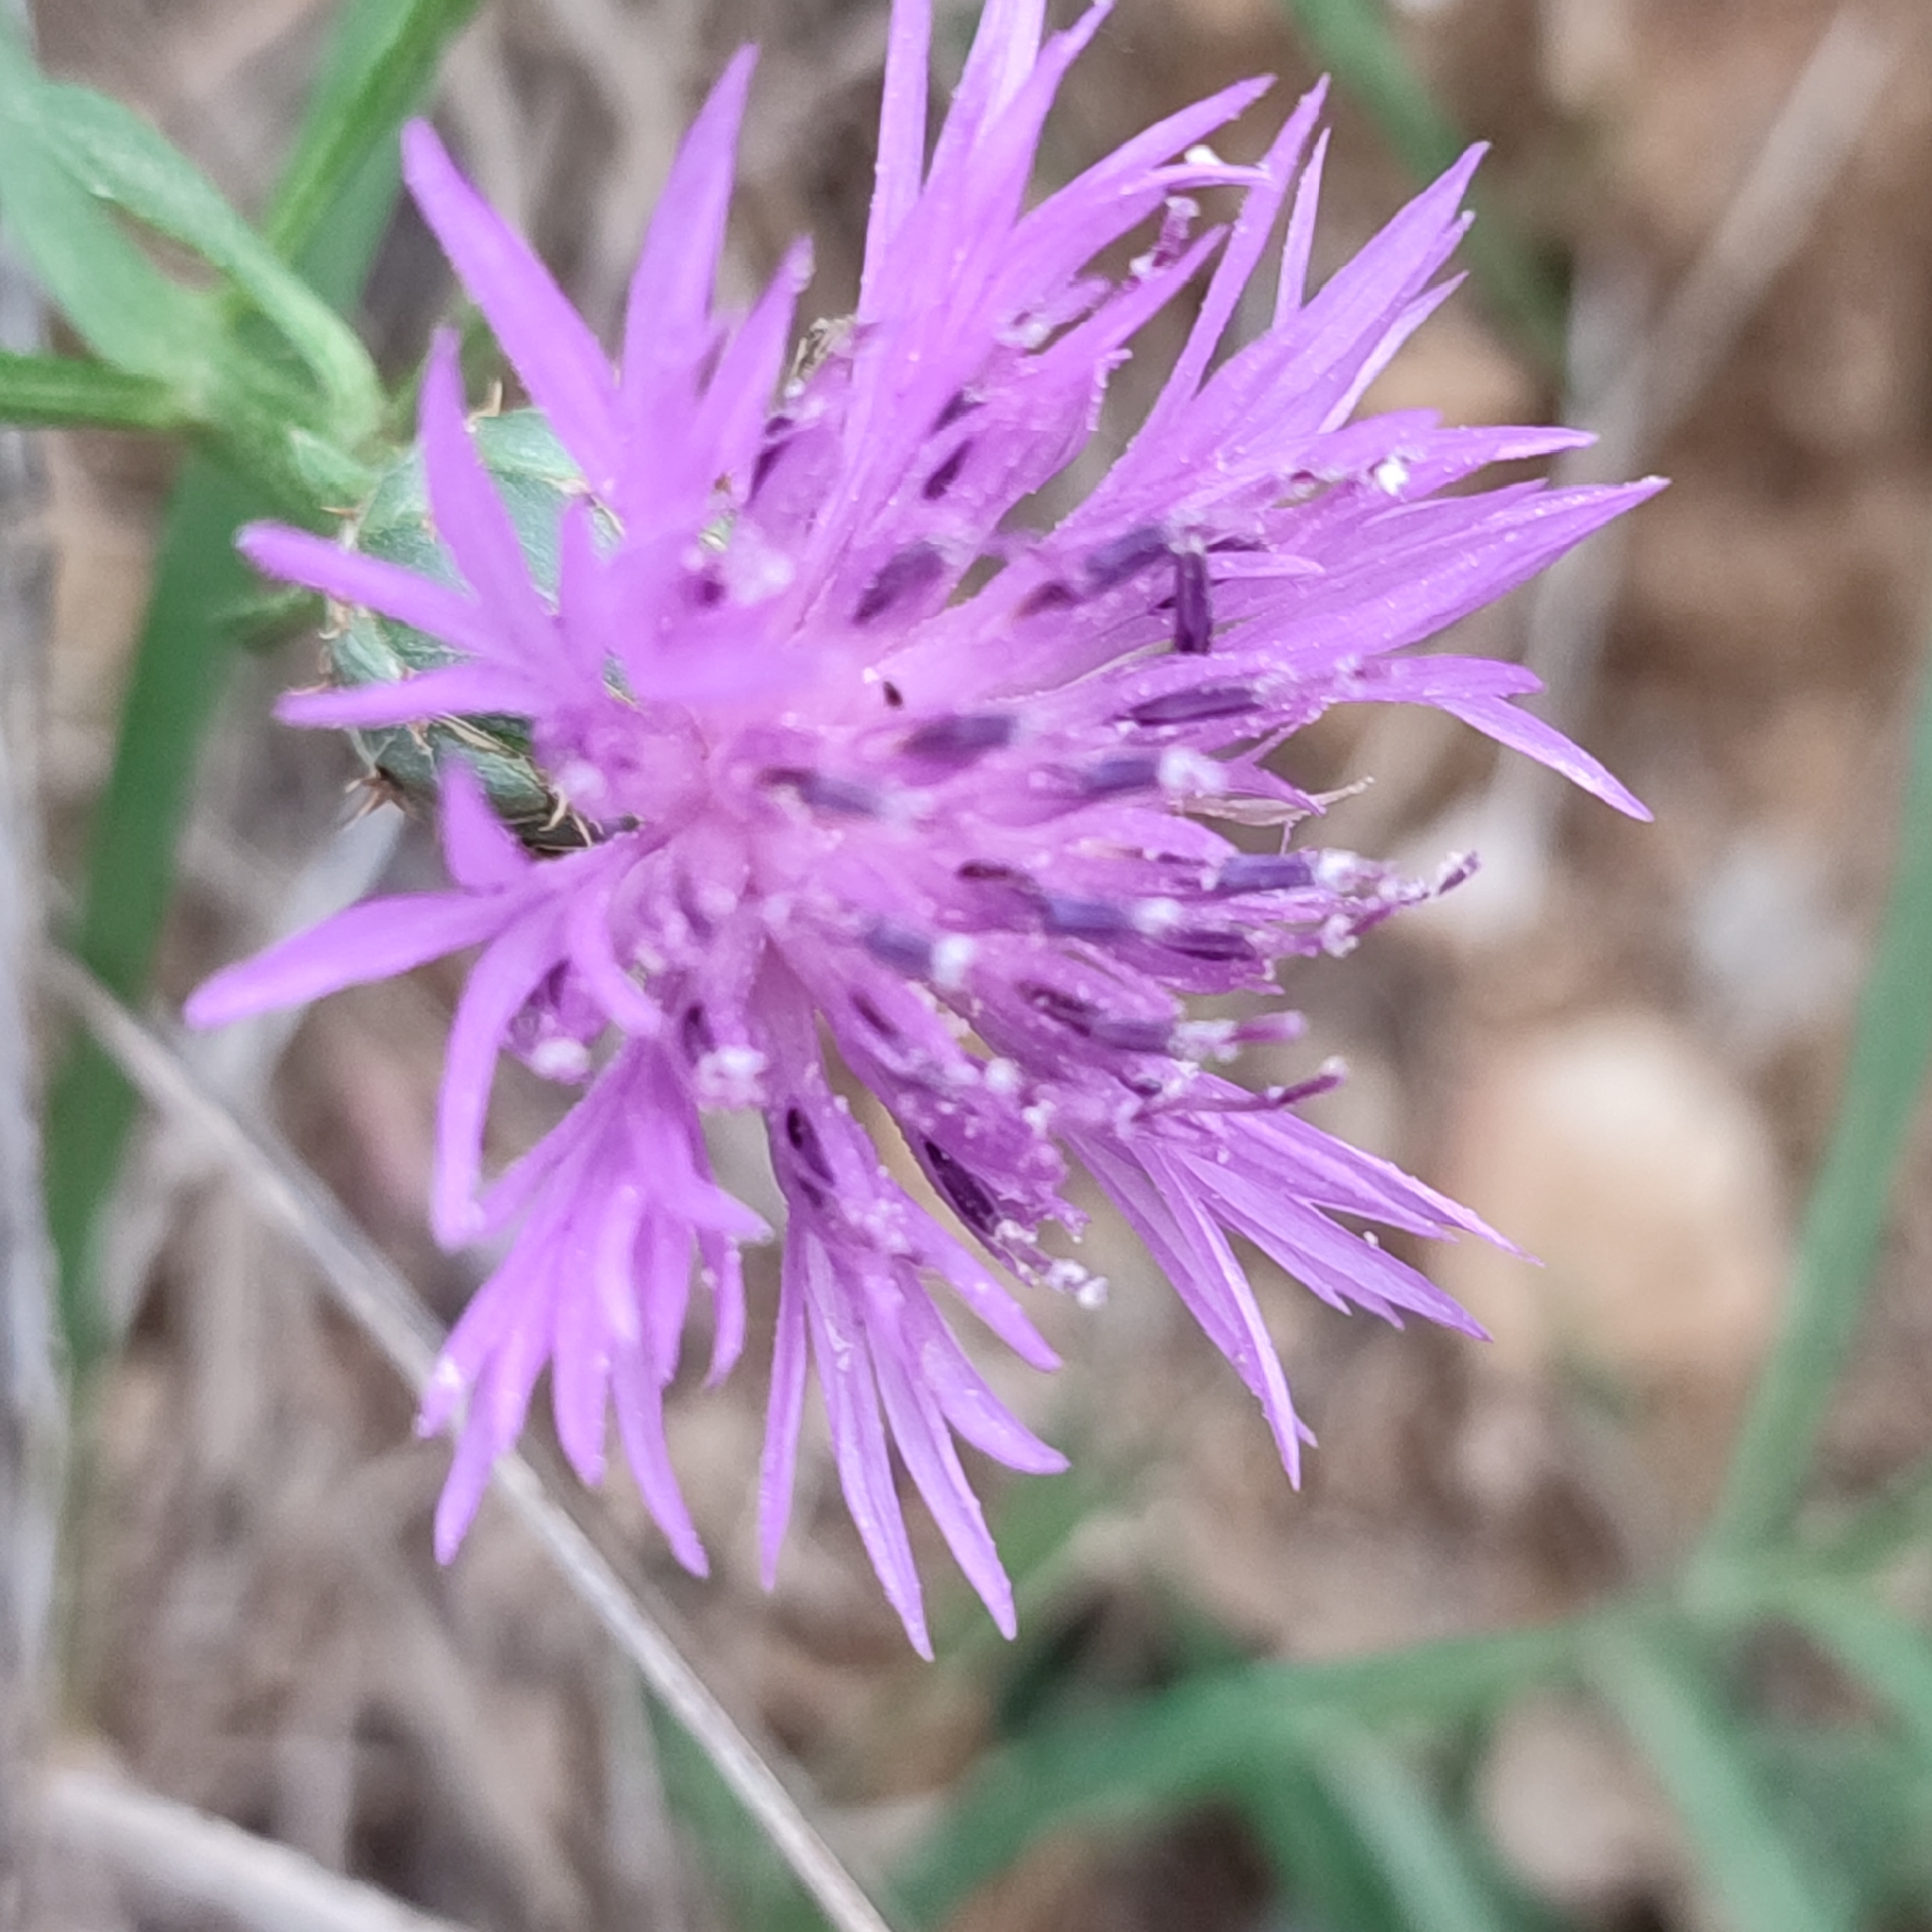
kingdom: Plantae
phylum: Tracheophyta
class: Magnoliopsida
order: Asterales
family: Asteraceae
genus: Centaurea
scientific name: Centaurea aspera
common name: Rough star-thistle
